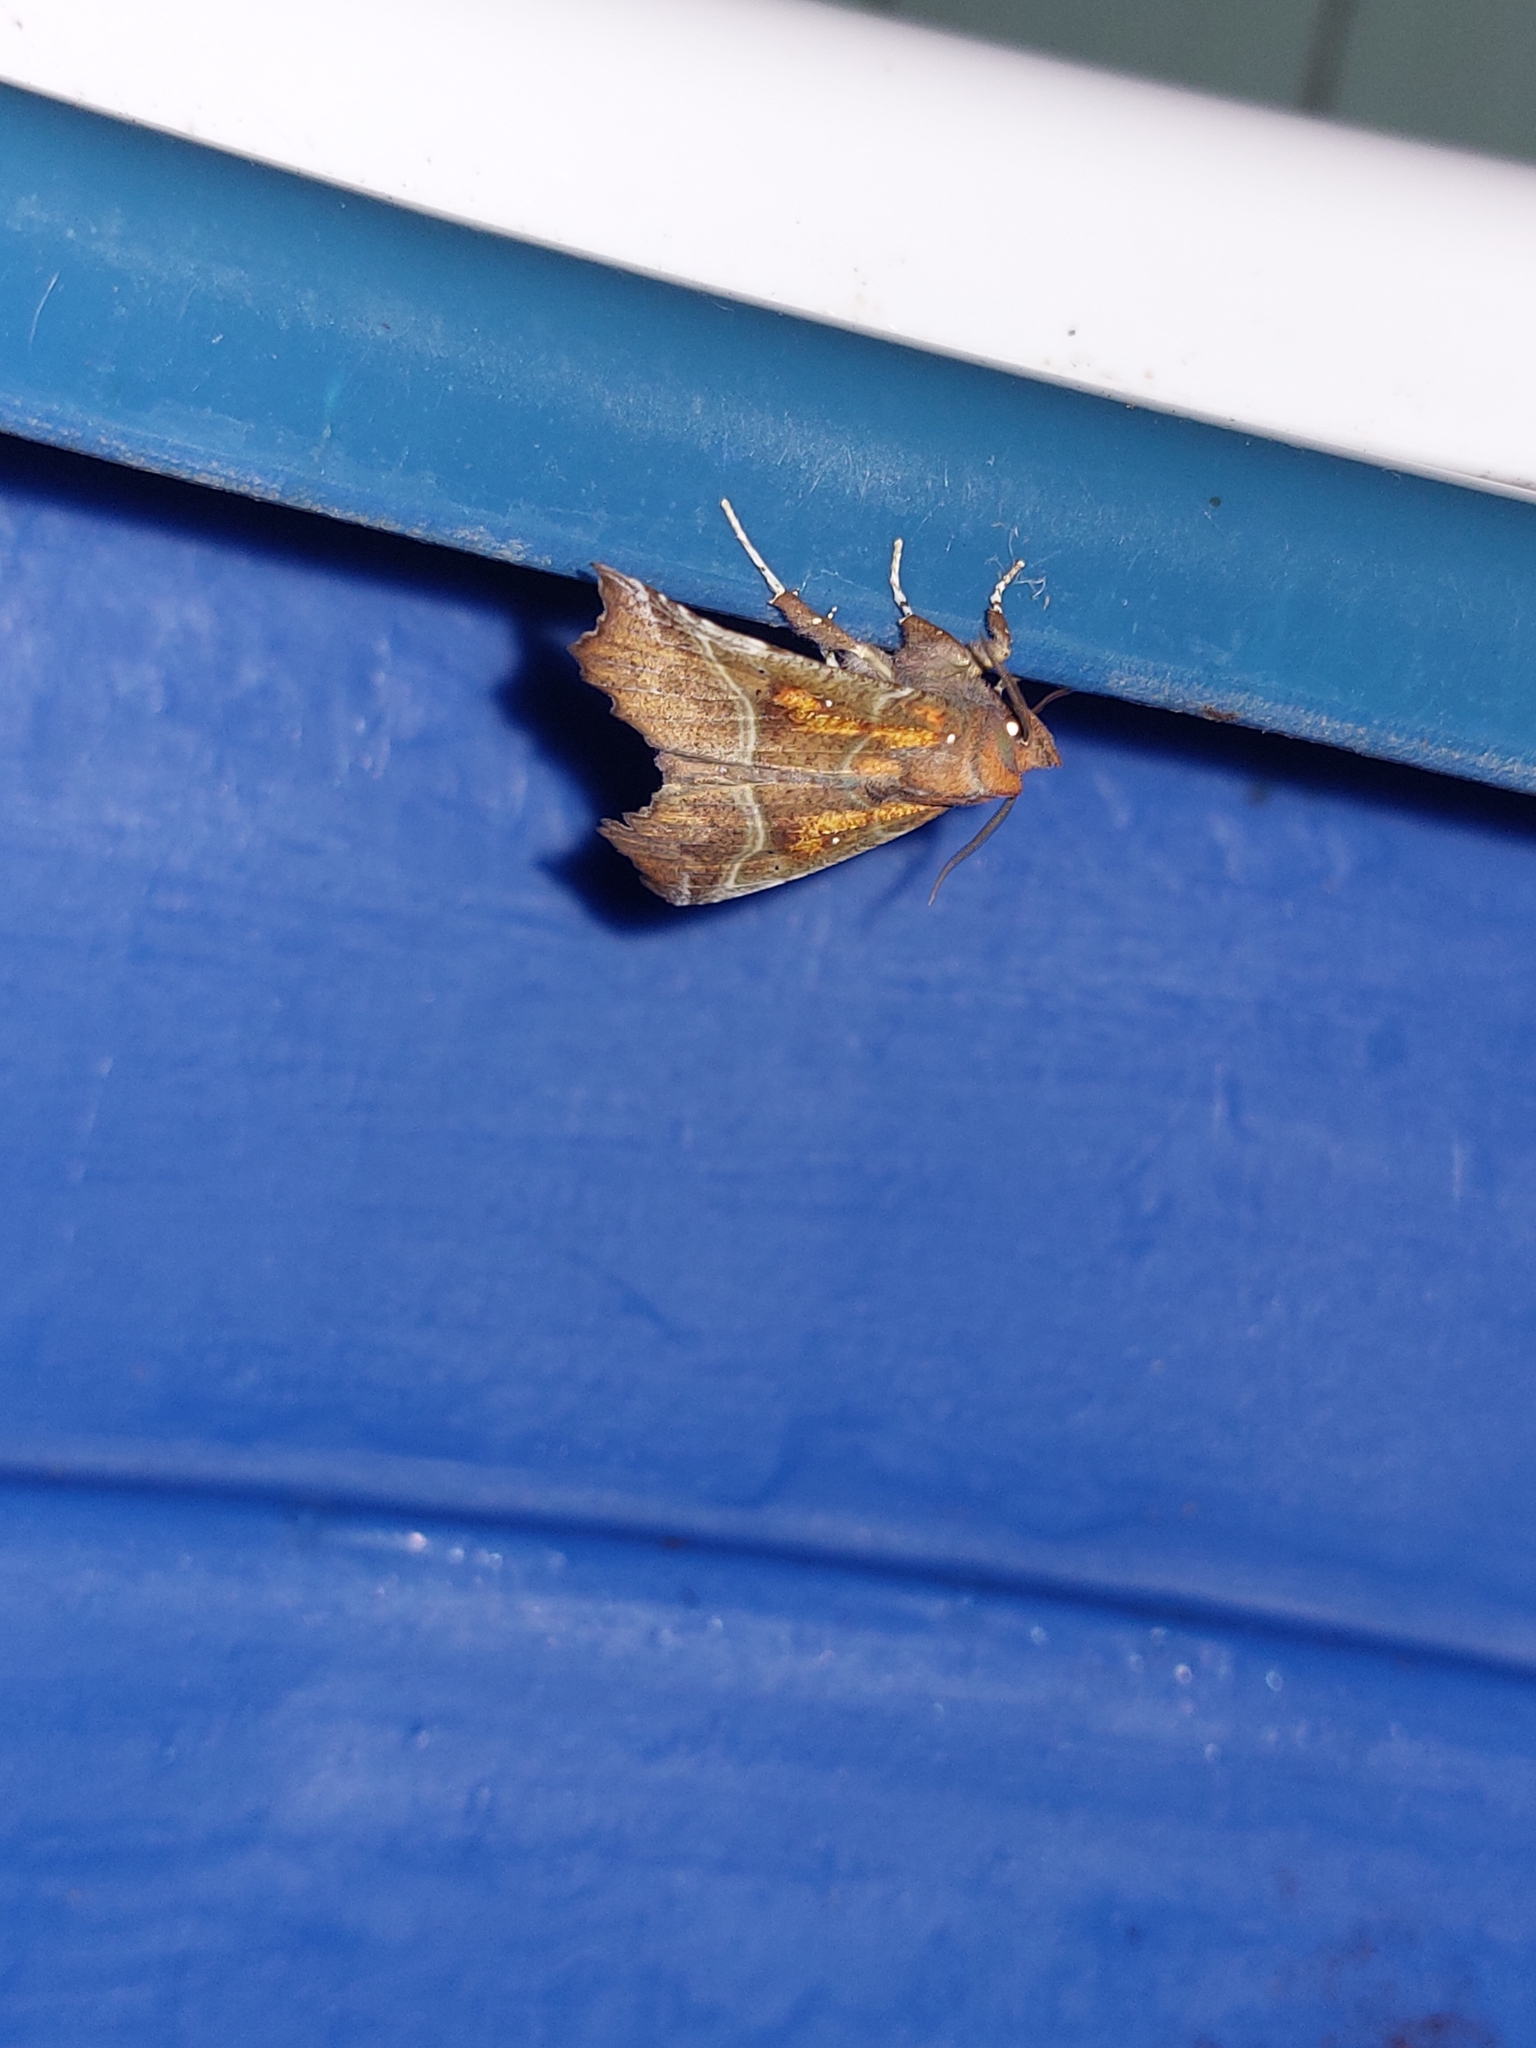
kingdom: Animalia
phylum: Arthropoda
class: Insecta
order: Lepidoptera
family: Erebidae
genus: Scoliopteryx
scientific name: Scoliopteryx libatrix
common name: Herald
